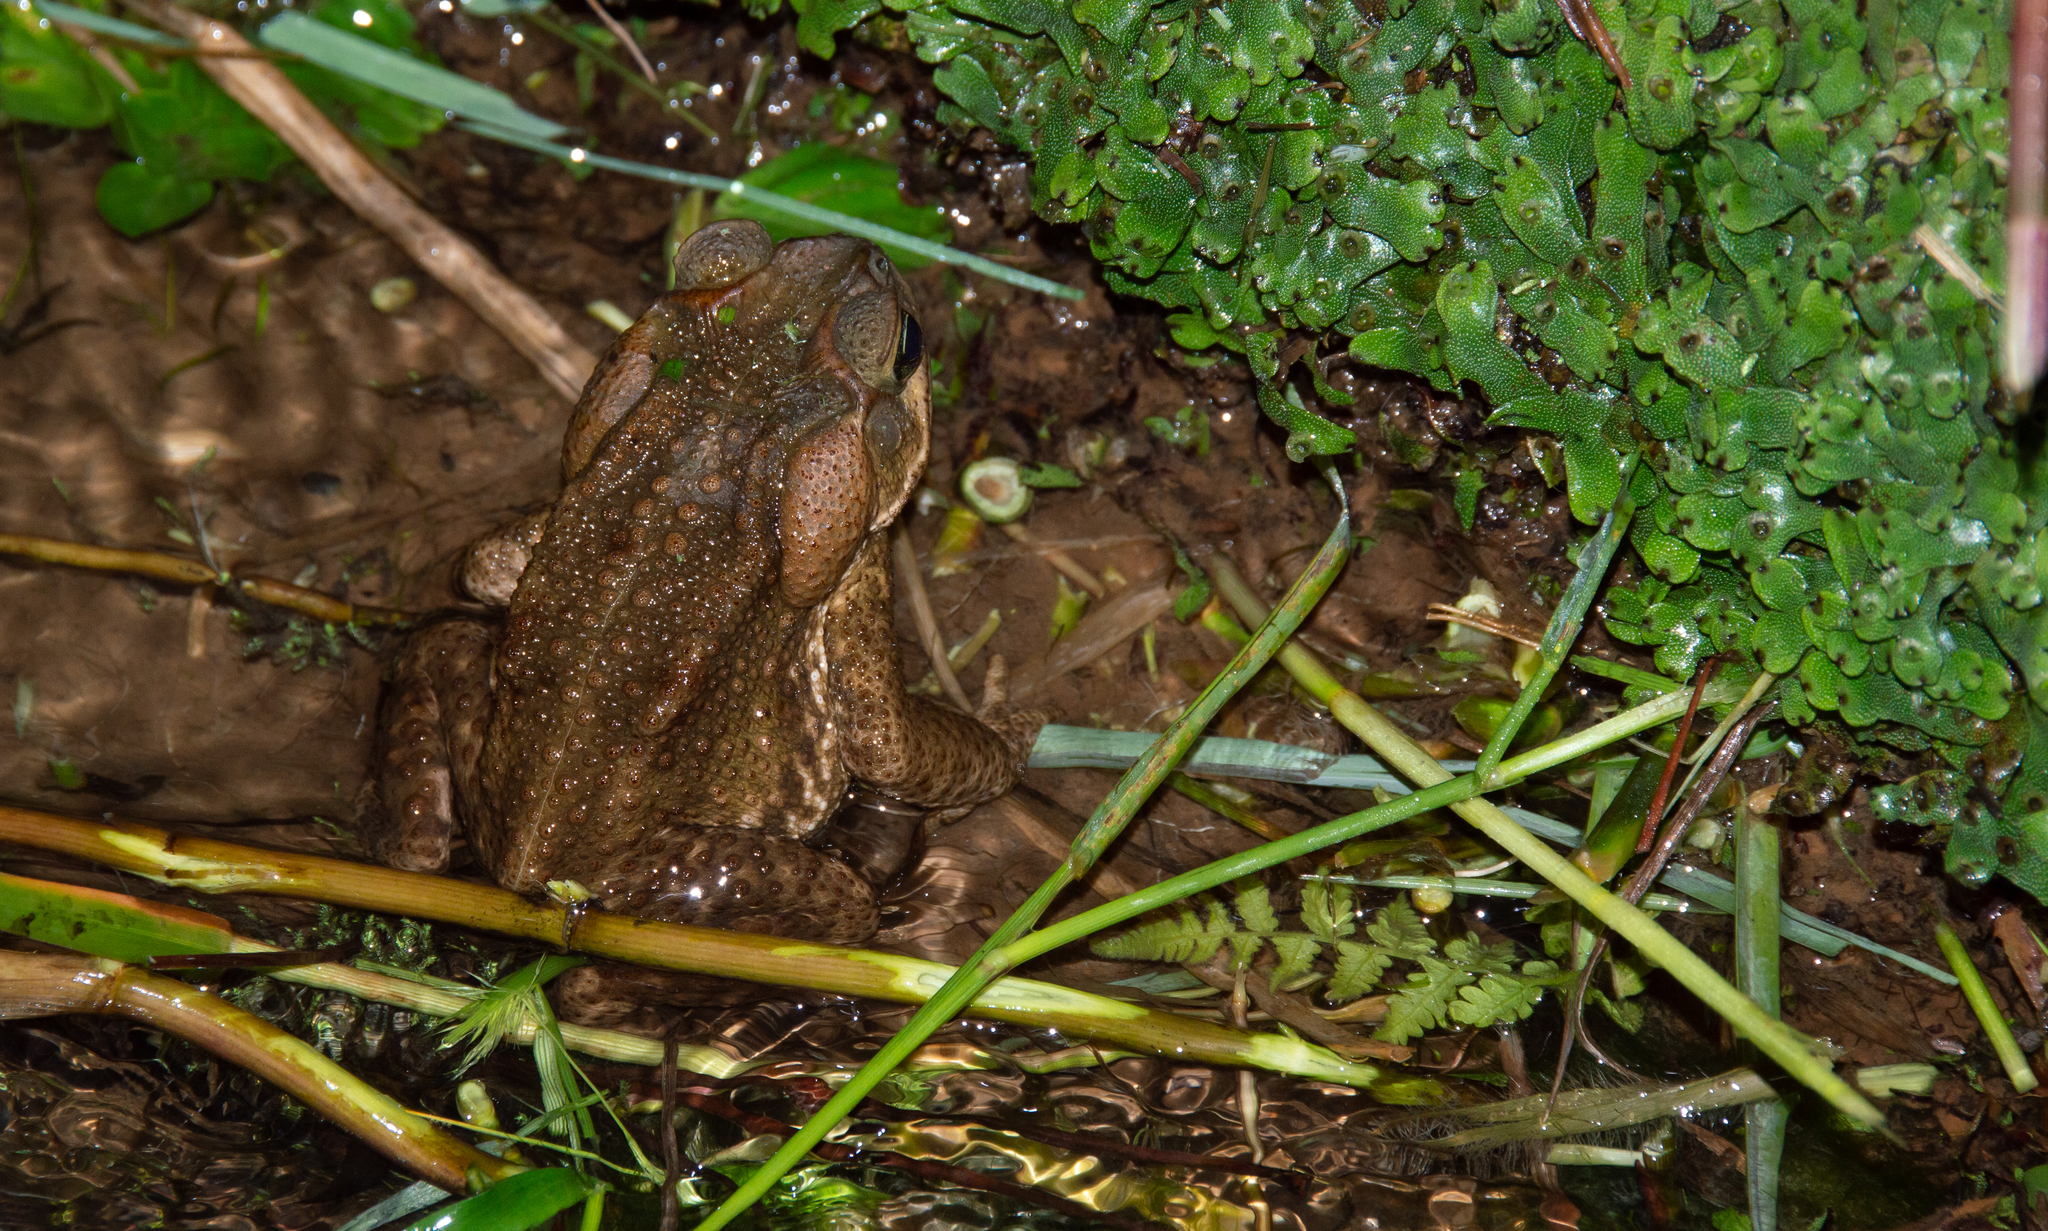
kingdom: Animalia
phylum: Chordata
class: Amphibia
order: Anura
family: Bufonidae
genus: Rhinella
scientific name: Rhinella icterica
